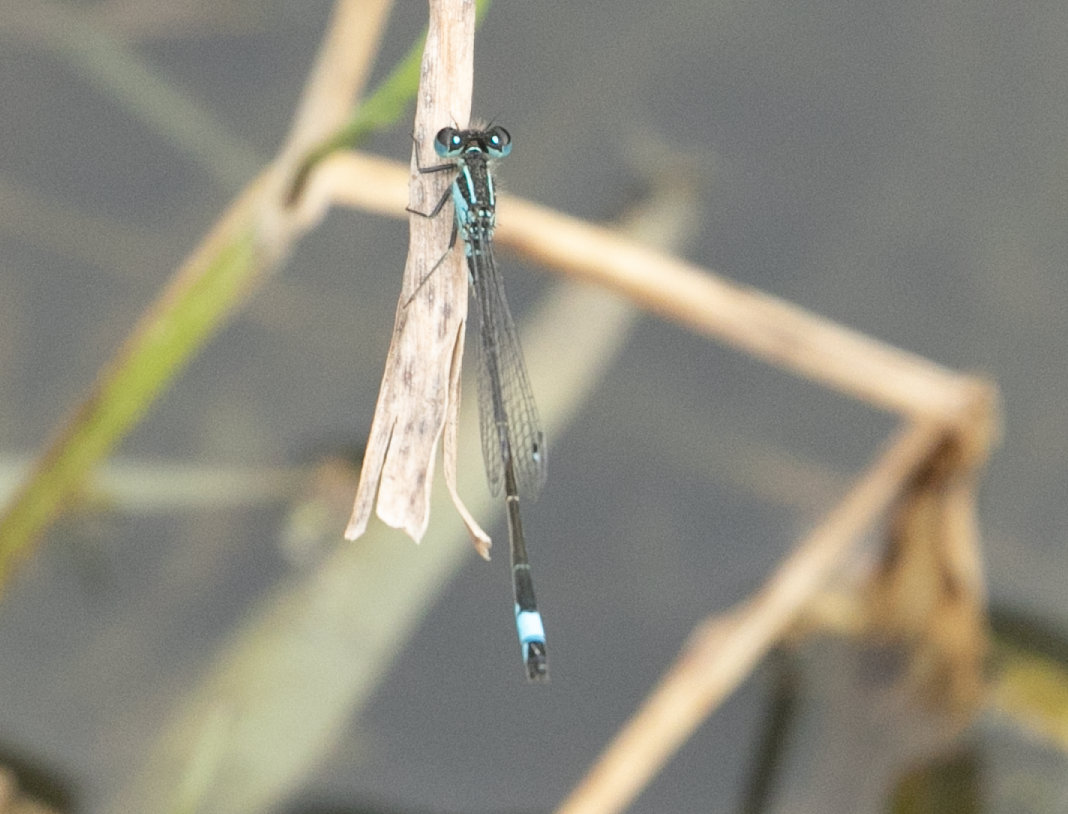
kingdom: Animalia
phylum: Arthropoda
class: Insecta
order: Odonata
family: Coenagrionidae
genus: Ischnura
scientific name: Ischnura elegans
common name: Blue-tailed damselfly
